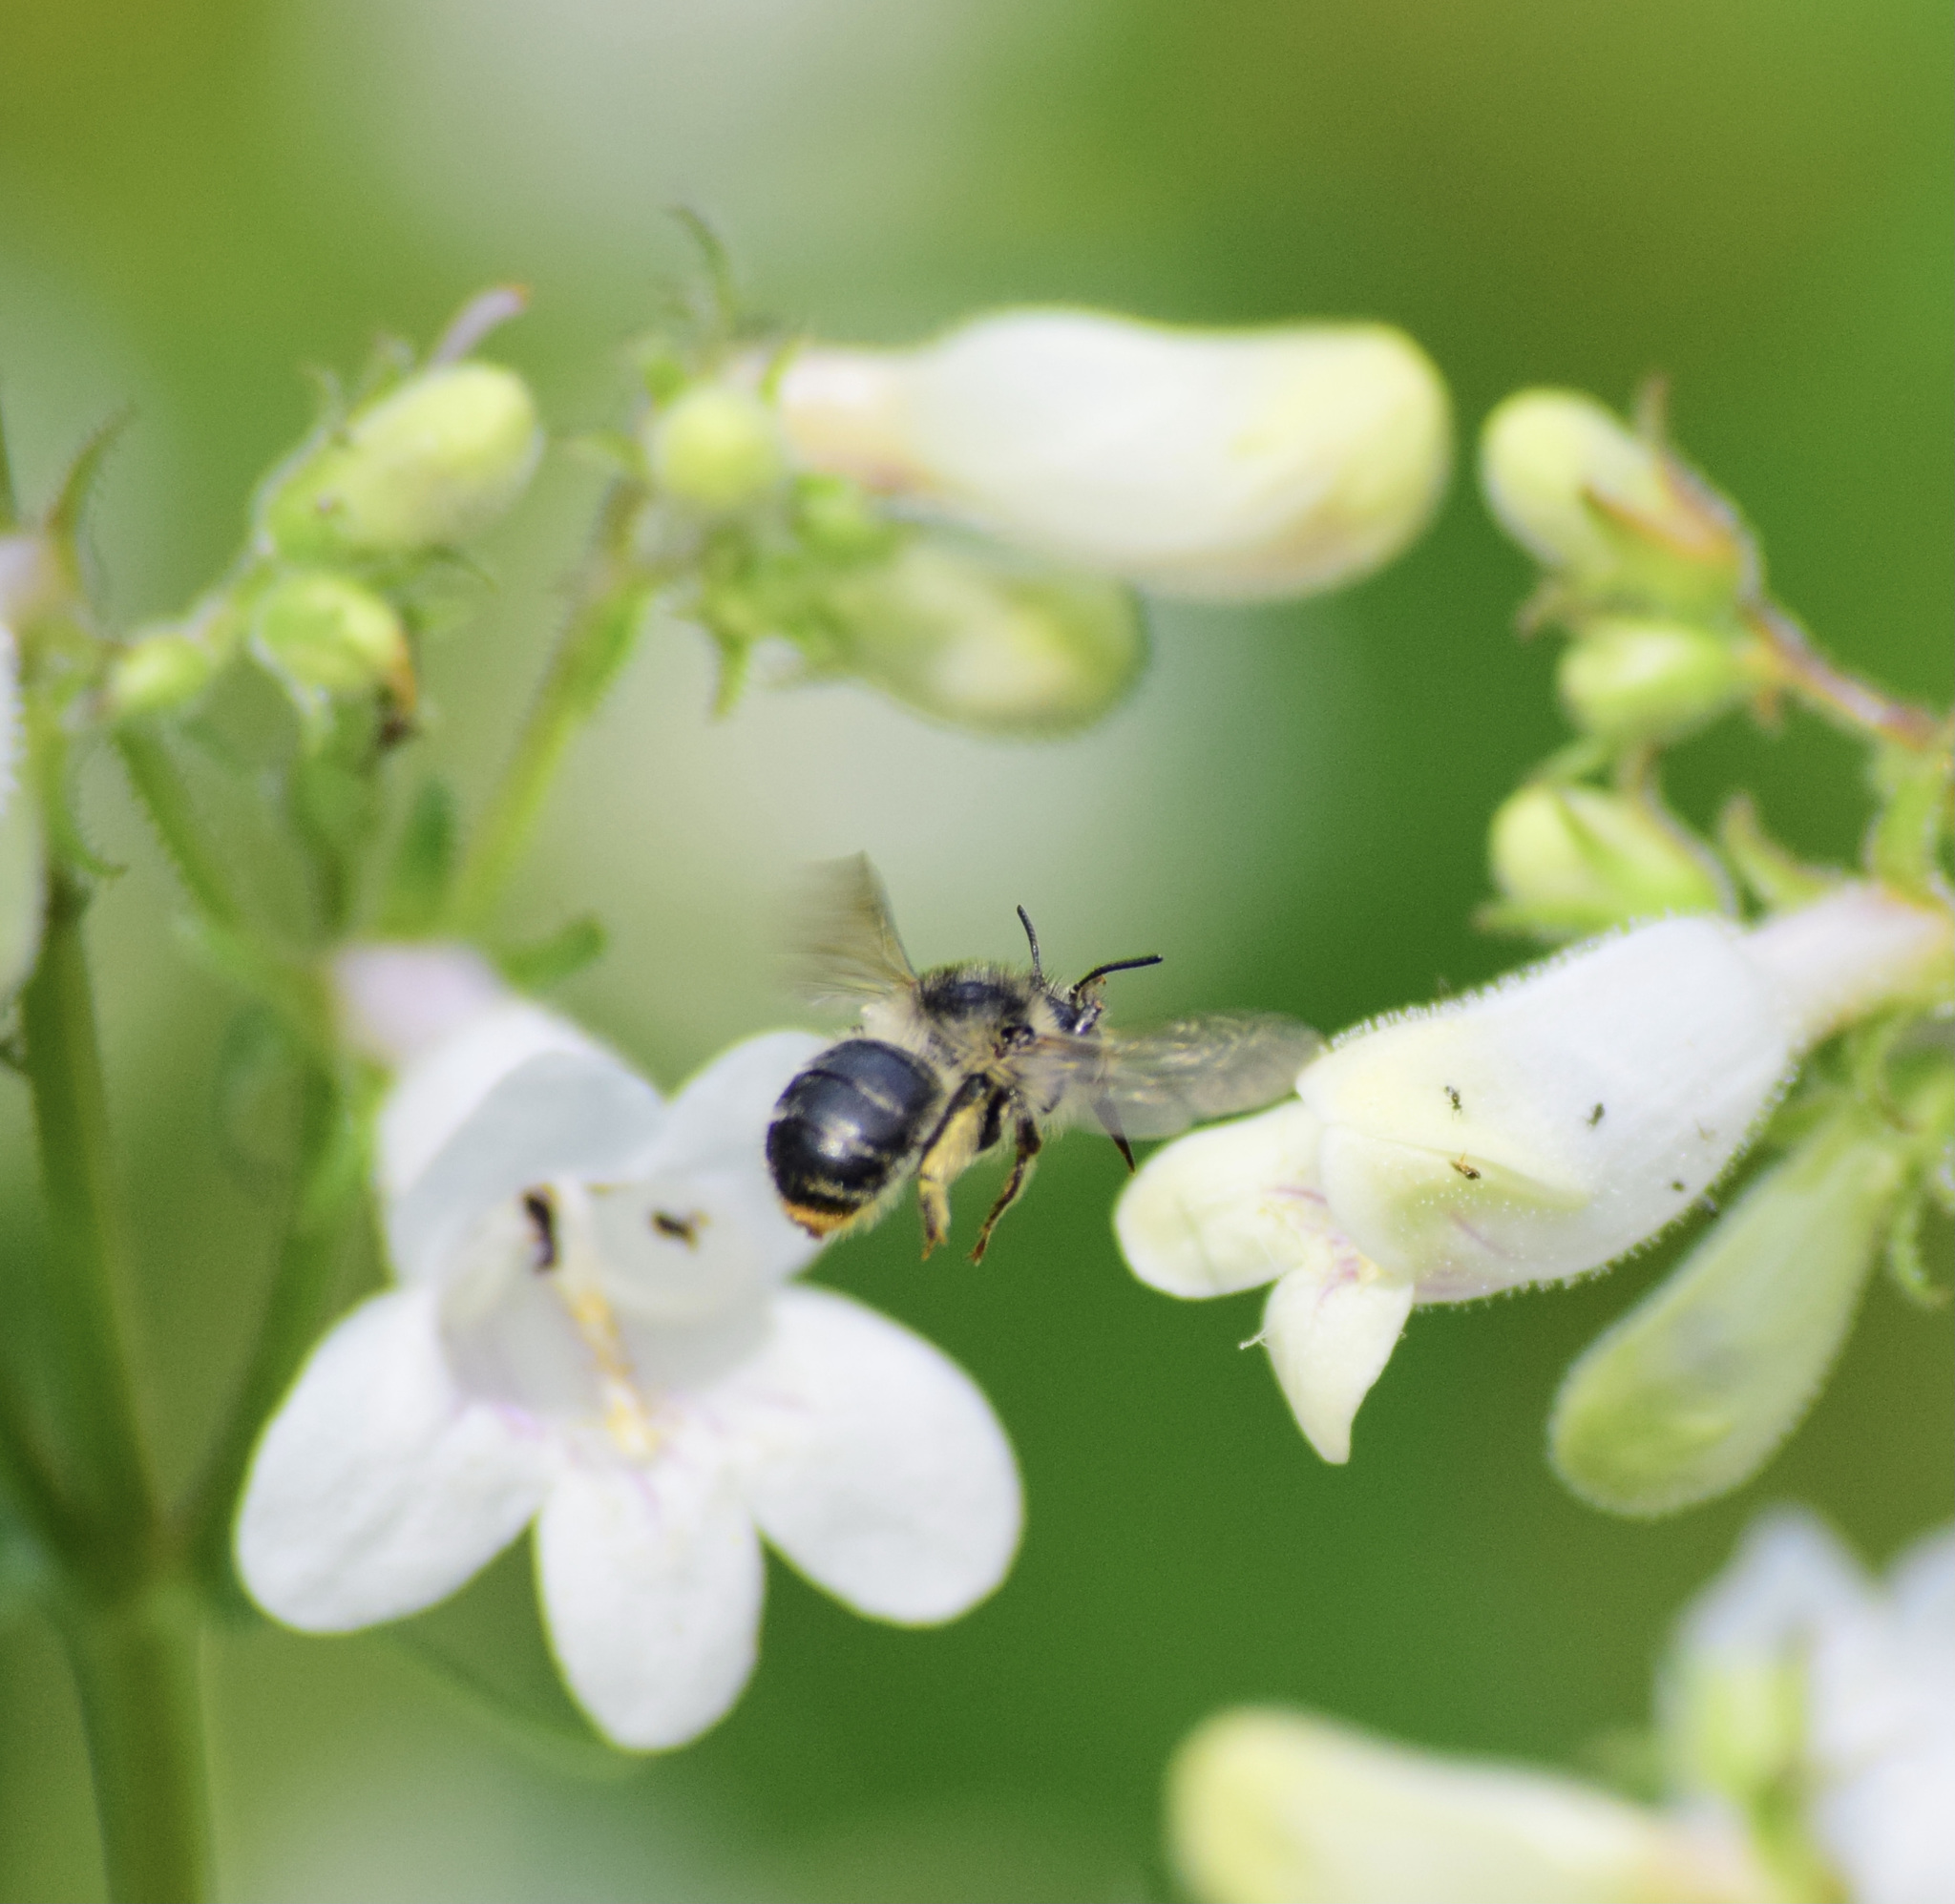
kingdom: Animalia
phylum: Arthropoda
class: Insecta
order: Hymenoptera
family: Apidae
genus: Anthophora
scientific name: Anthophora terminalis
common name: Orange-tipped wood-digger bee
